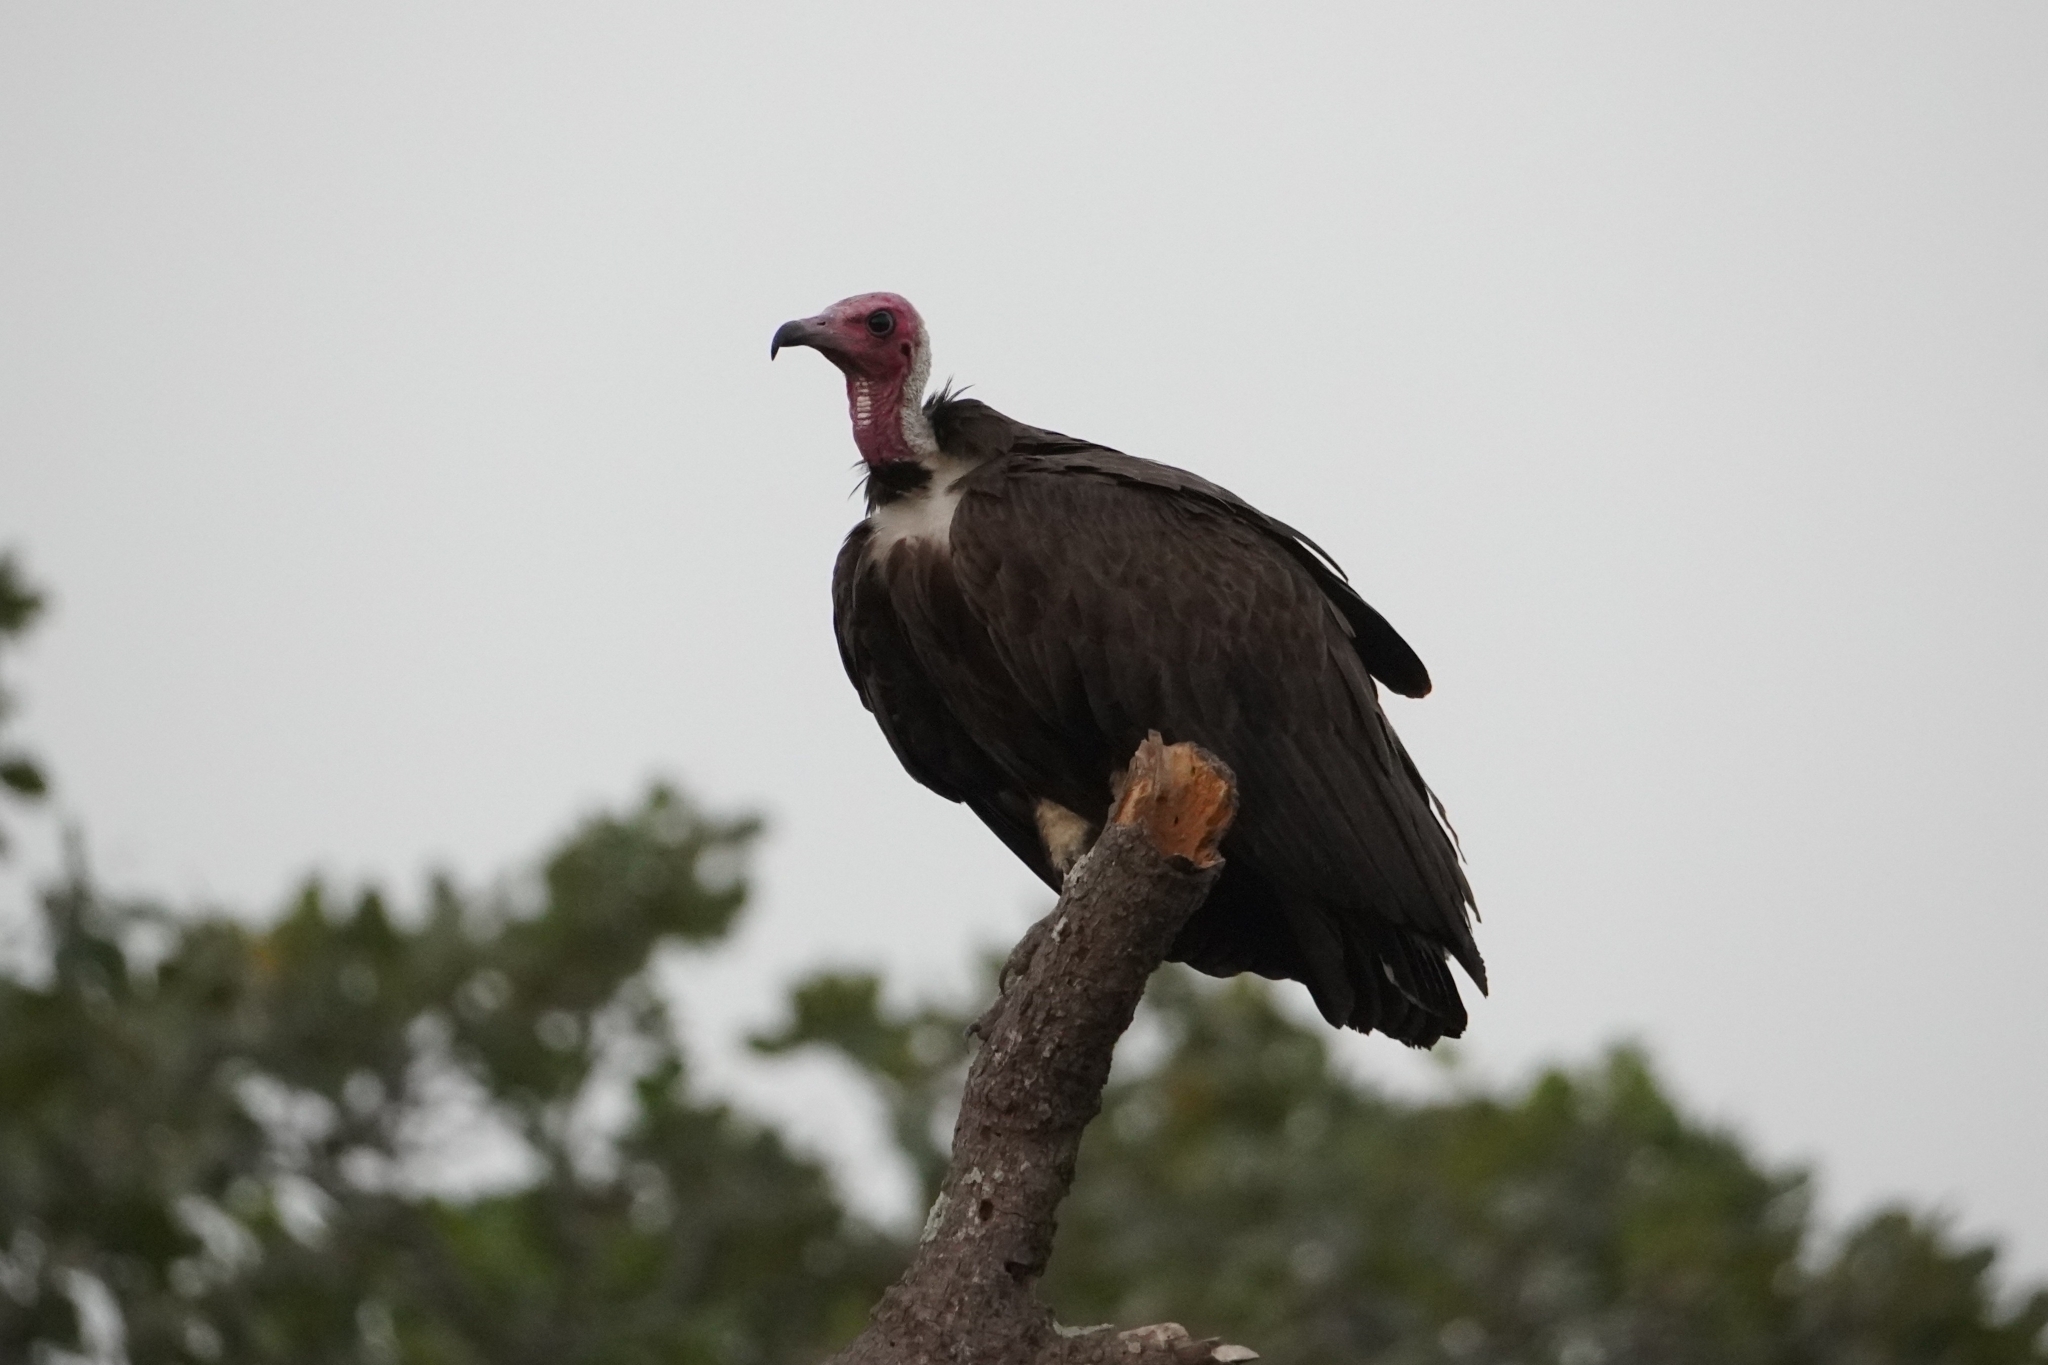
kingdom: Animalia
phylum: Chordata
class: Aves
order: Accipitriformes
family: Accipitridae
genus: Necrosyrtes
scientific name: Necrosyrtes monachus
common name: Hooded vulture
